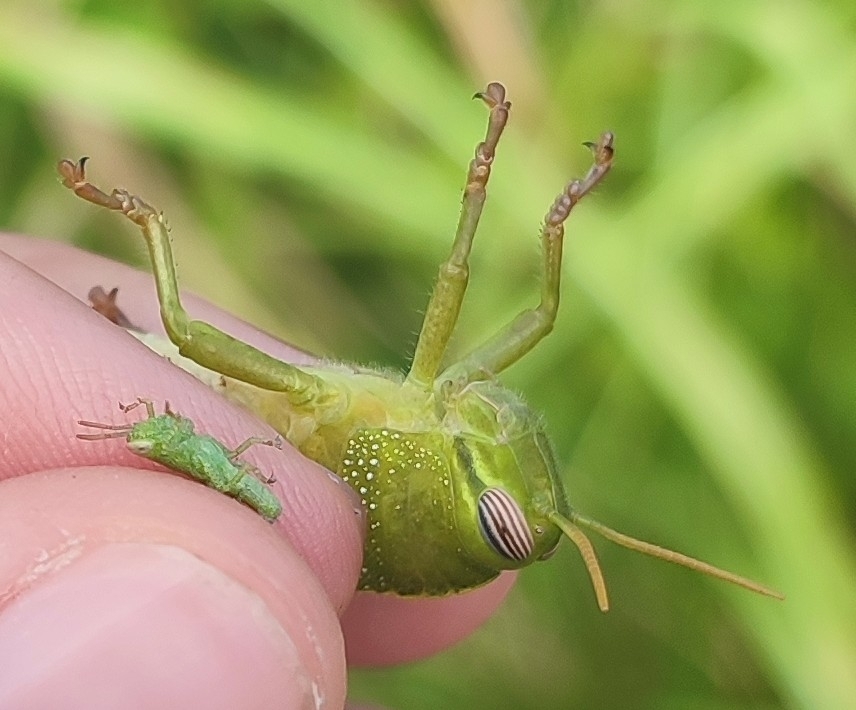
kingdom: Animalia
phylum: Arthropoda
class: Insecta
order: Orthoptera
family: Acrididae
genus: Anacridium
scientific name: Anacridium aegyptium
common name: Egyptian grasshopper
